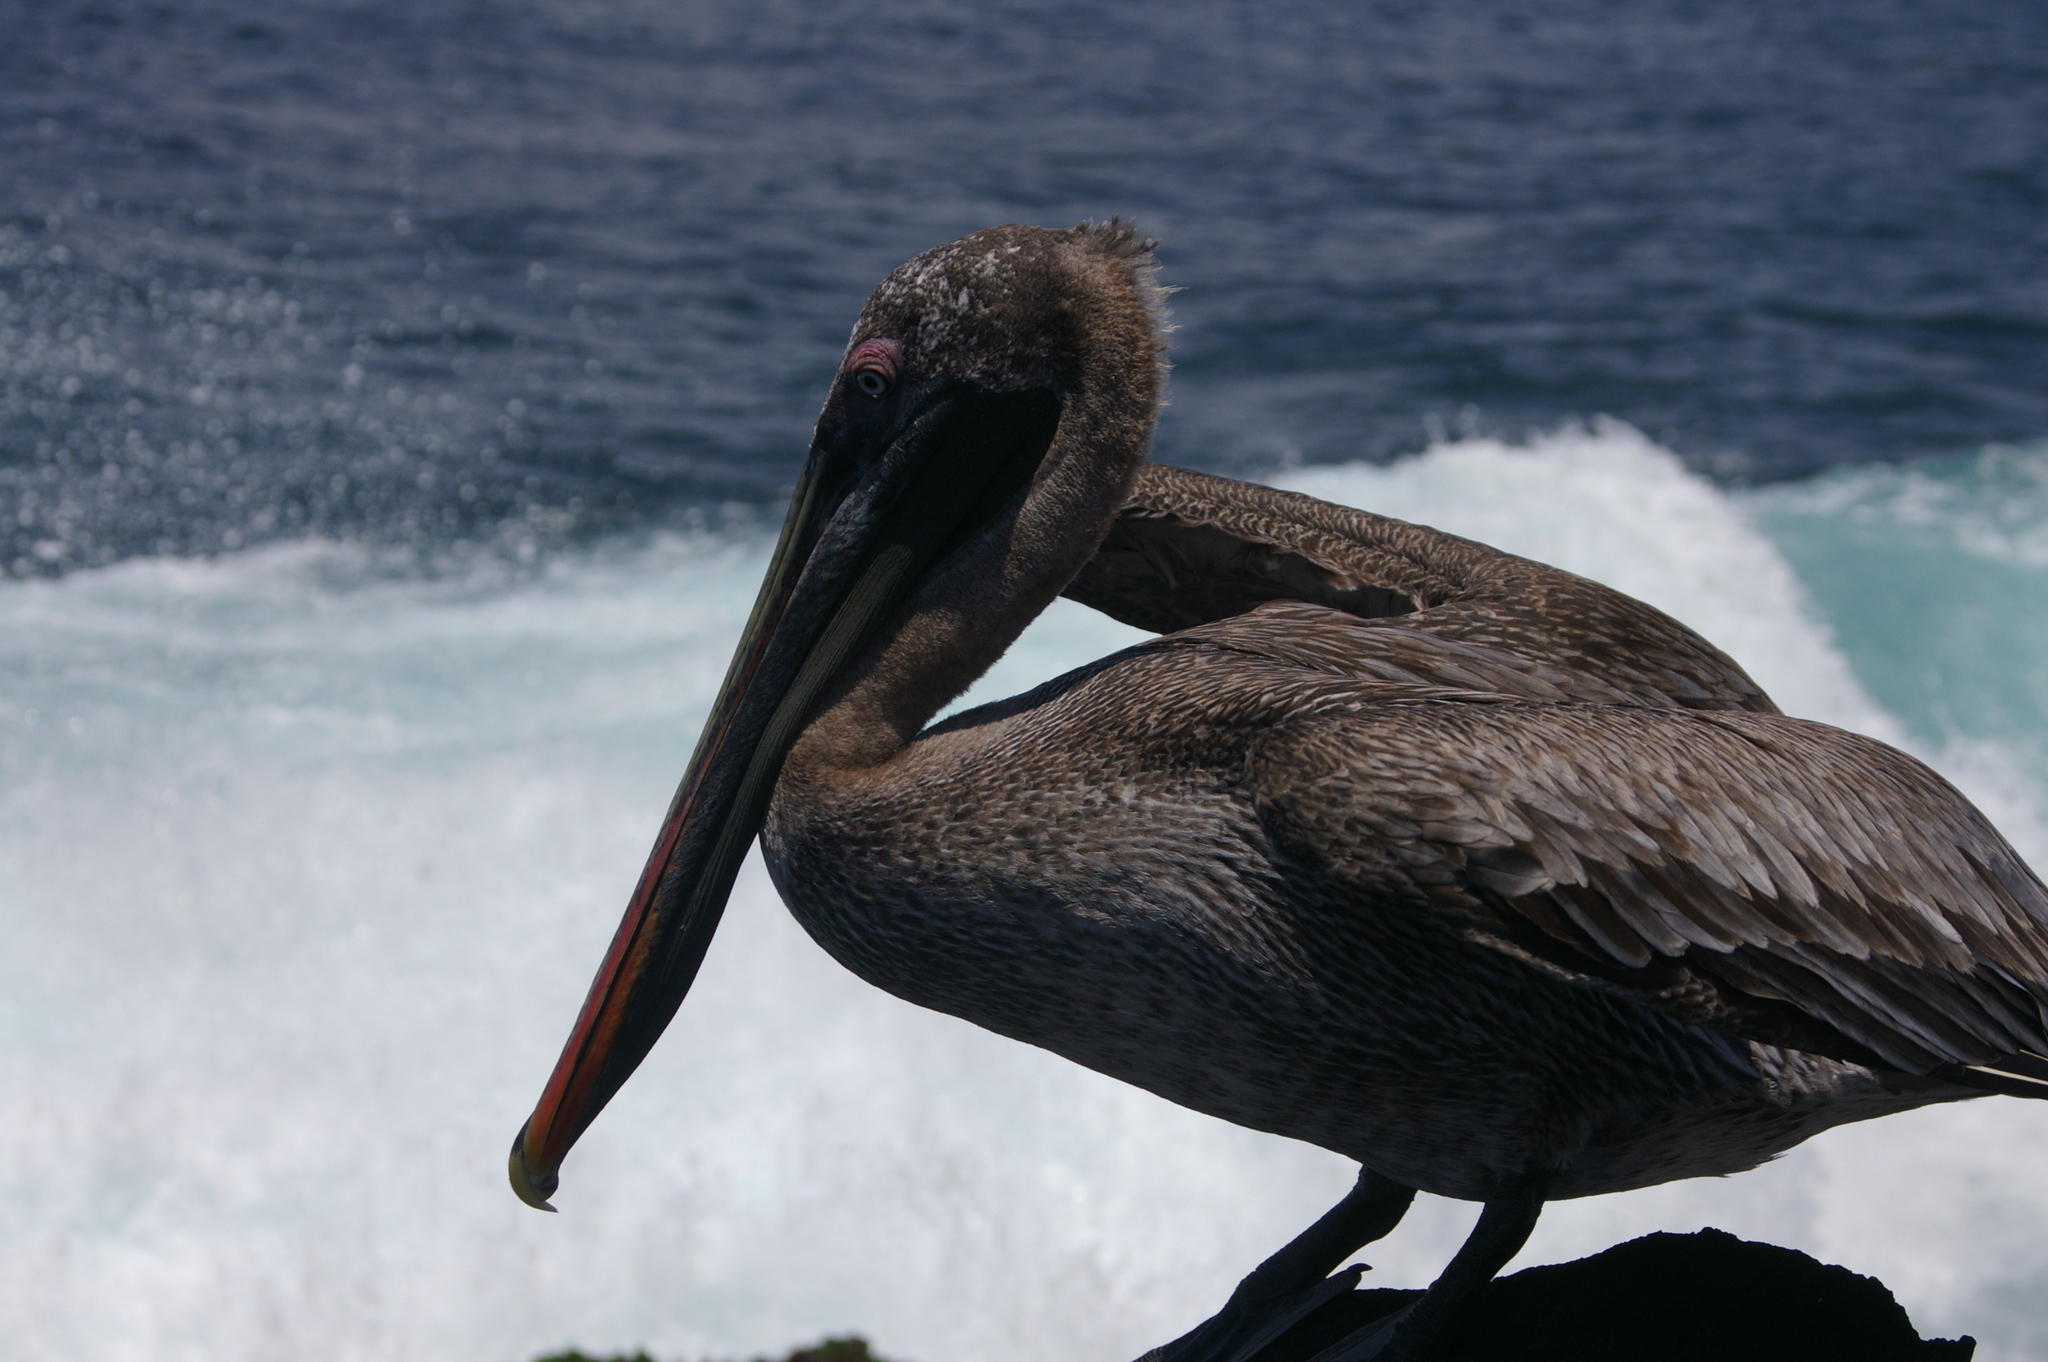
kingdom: Animalia
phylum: Chordata
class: Aves
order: Pelecaniformes
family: Pelecanidae
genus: Pelecanus
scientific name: Pelecanus occidentalis
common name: Brown pelican
